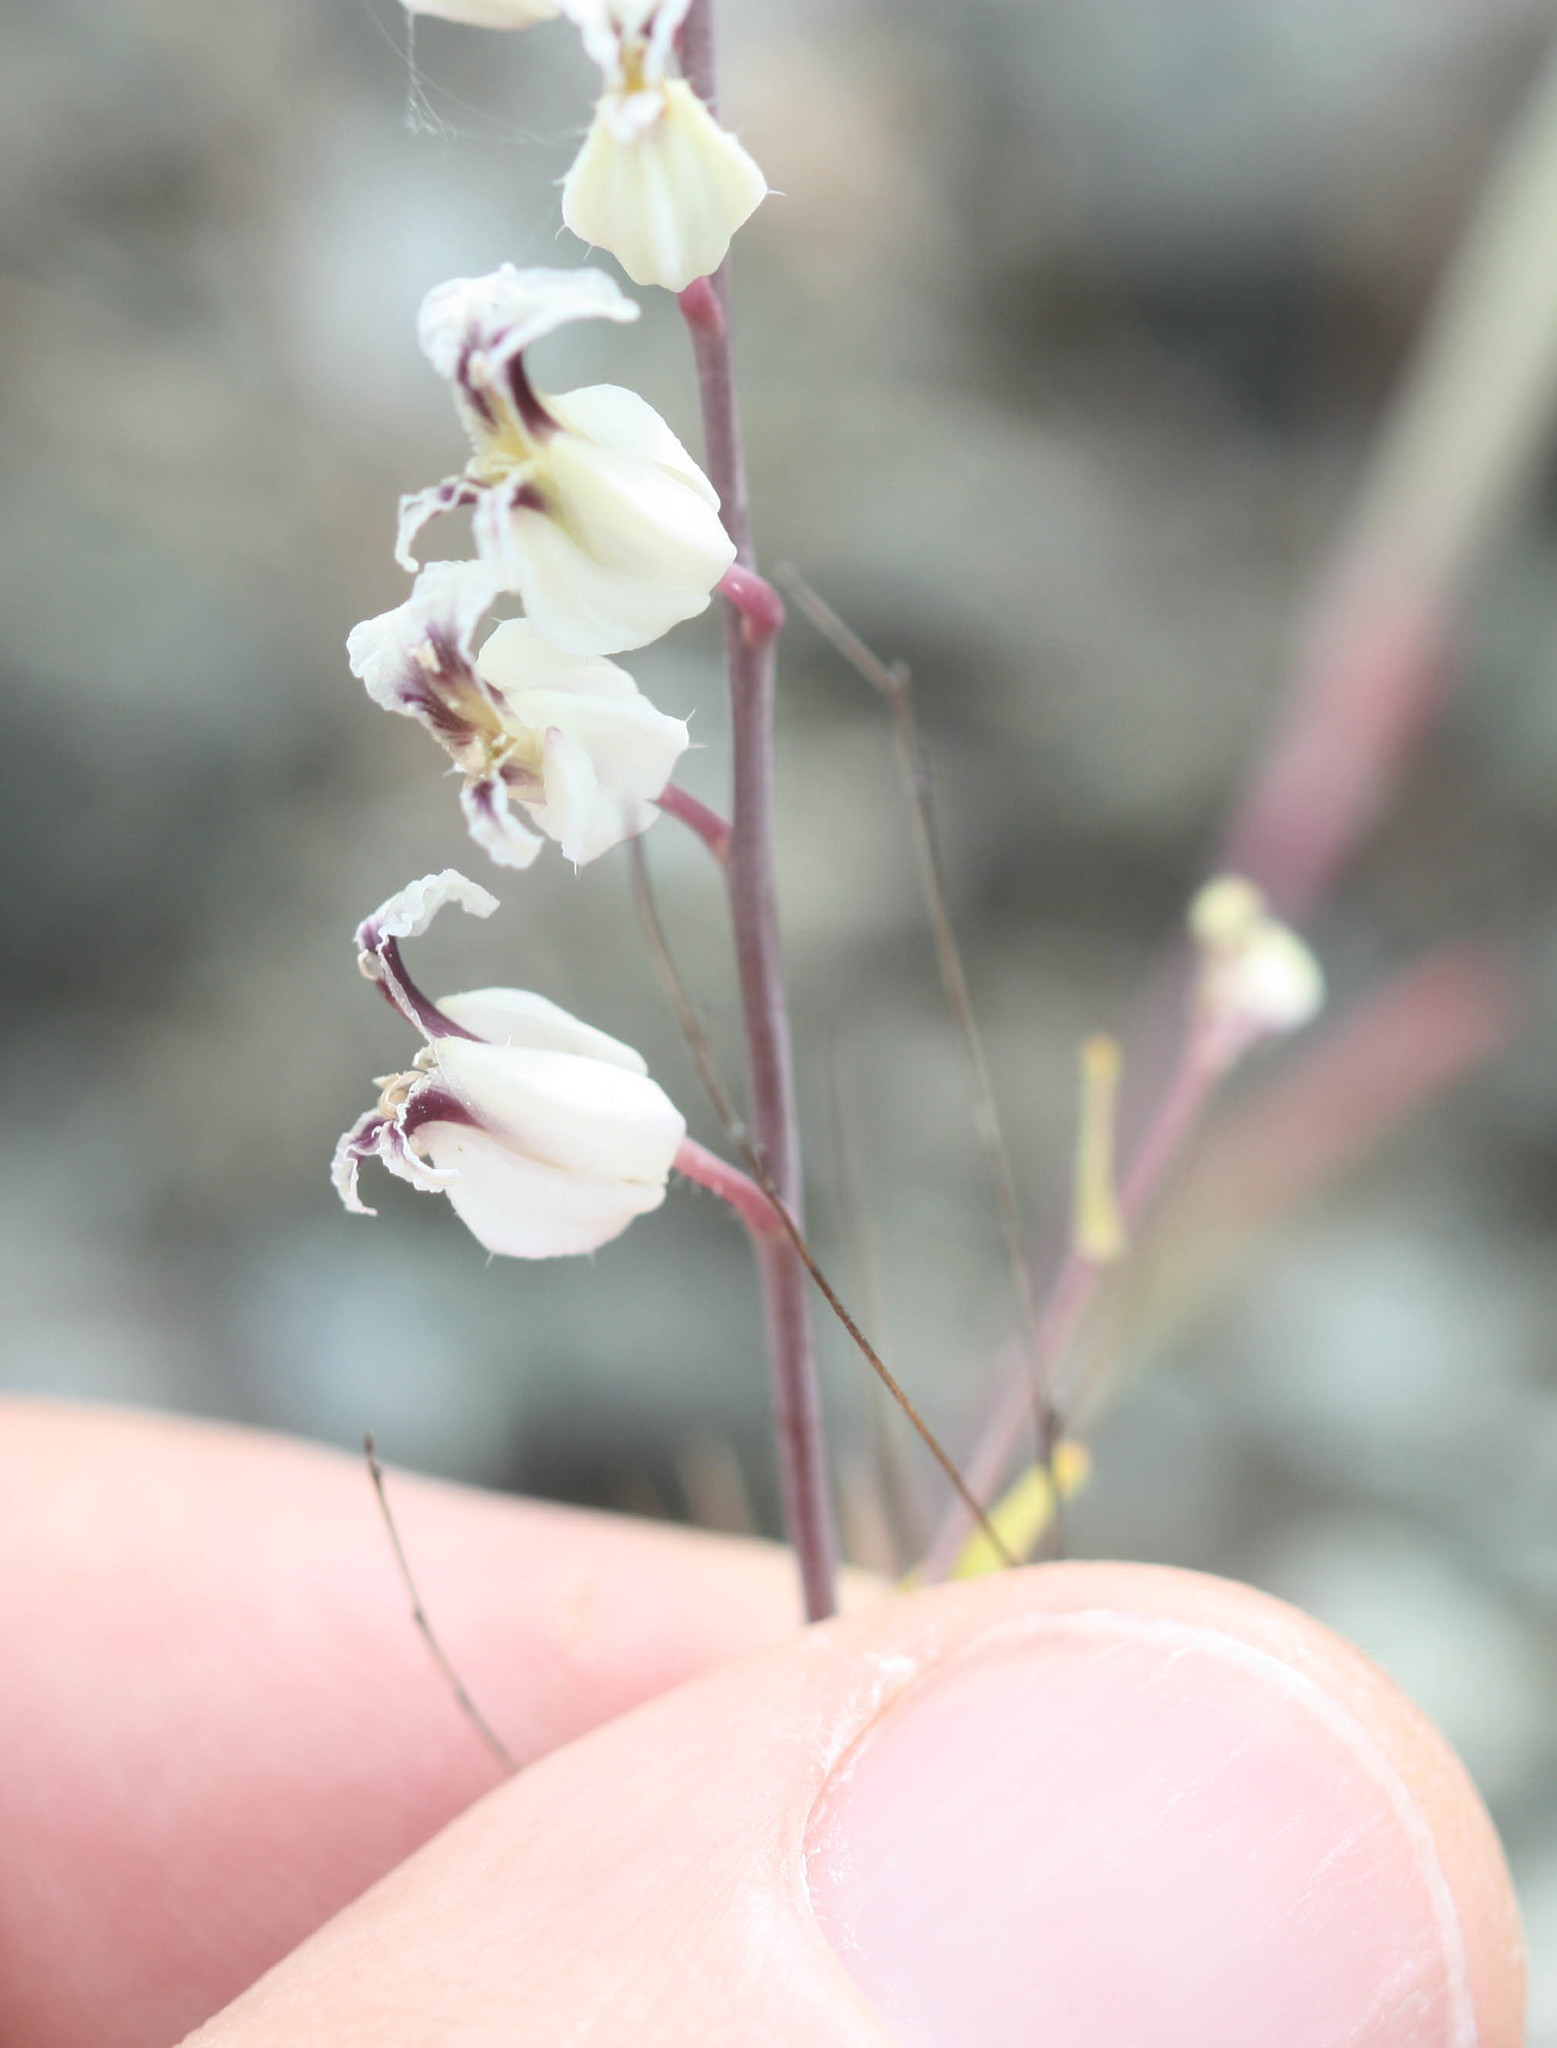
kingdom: Plantae
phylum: Tracheophyta
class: Magnoliopsida
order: Brassicales
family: Brassicaceae
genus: Streptanthus
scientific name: Streptanthus glandulosus
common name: Jewel-flower
